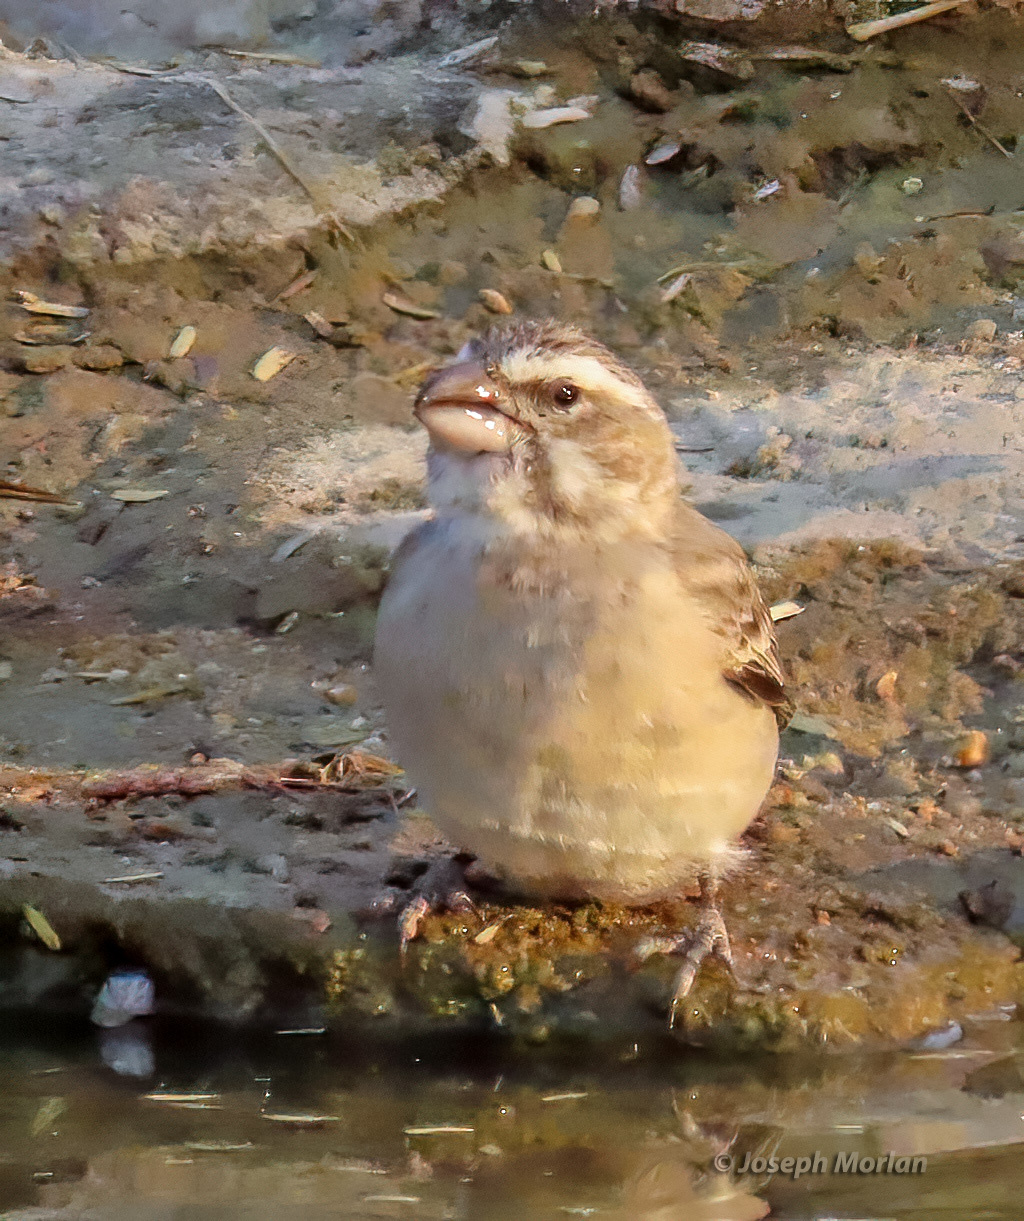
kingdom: Animalia
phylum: Chordata
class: Aves
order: Passeriformes
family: Fringillidae
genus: Crithagra
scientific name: Crithagra albogularis
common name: White-throated canary
